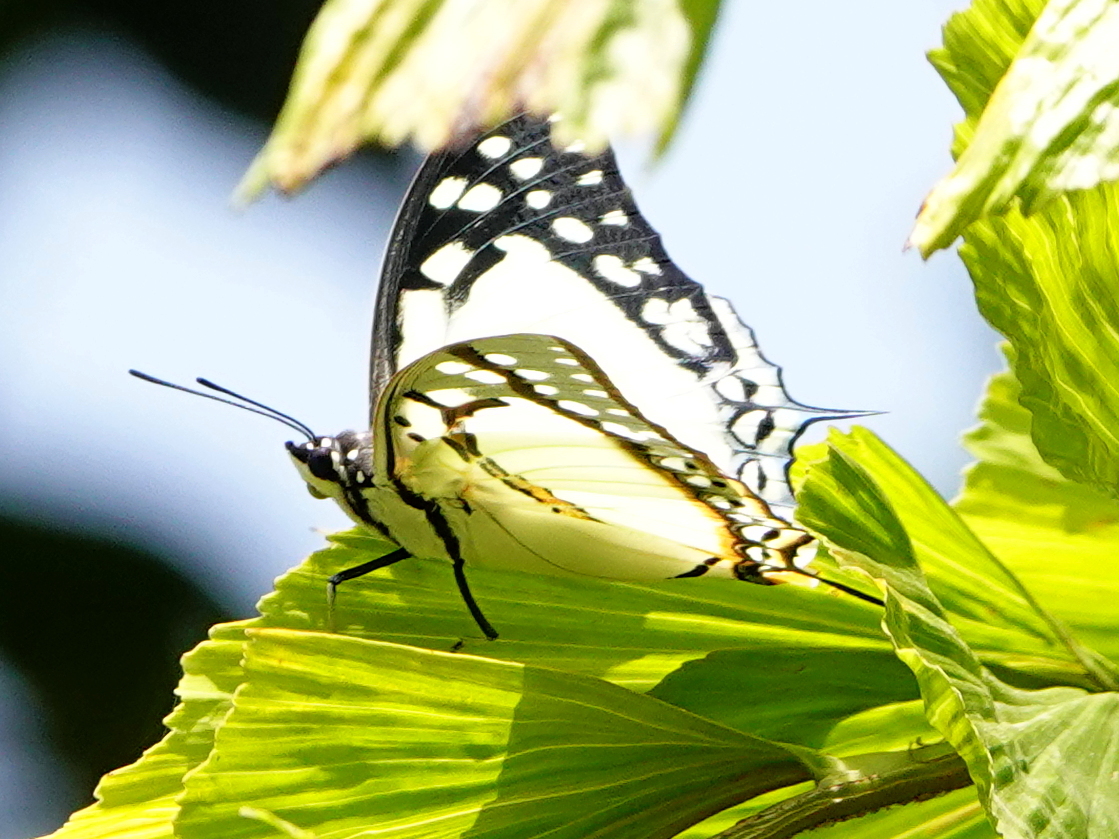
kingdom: Animalia
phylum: Arthropoda
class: Insecta
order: Lepidoptera
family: Nymphalidae
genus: Polyura
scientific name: Polyura eudamippus
